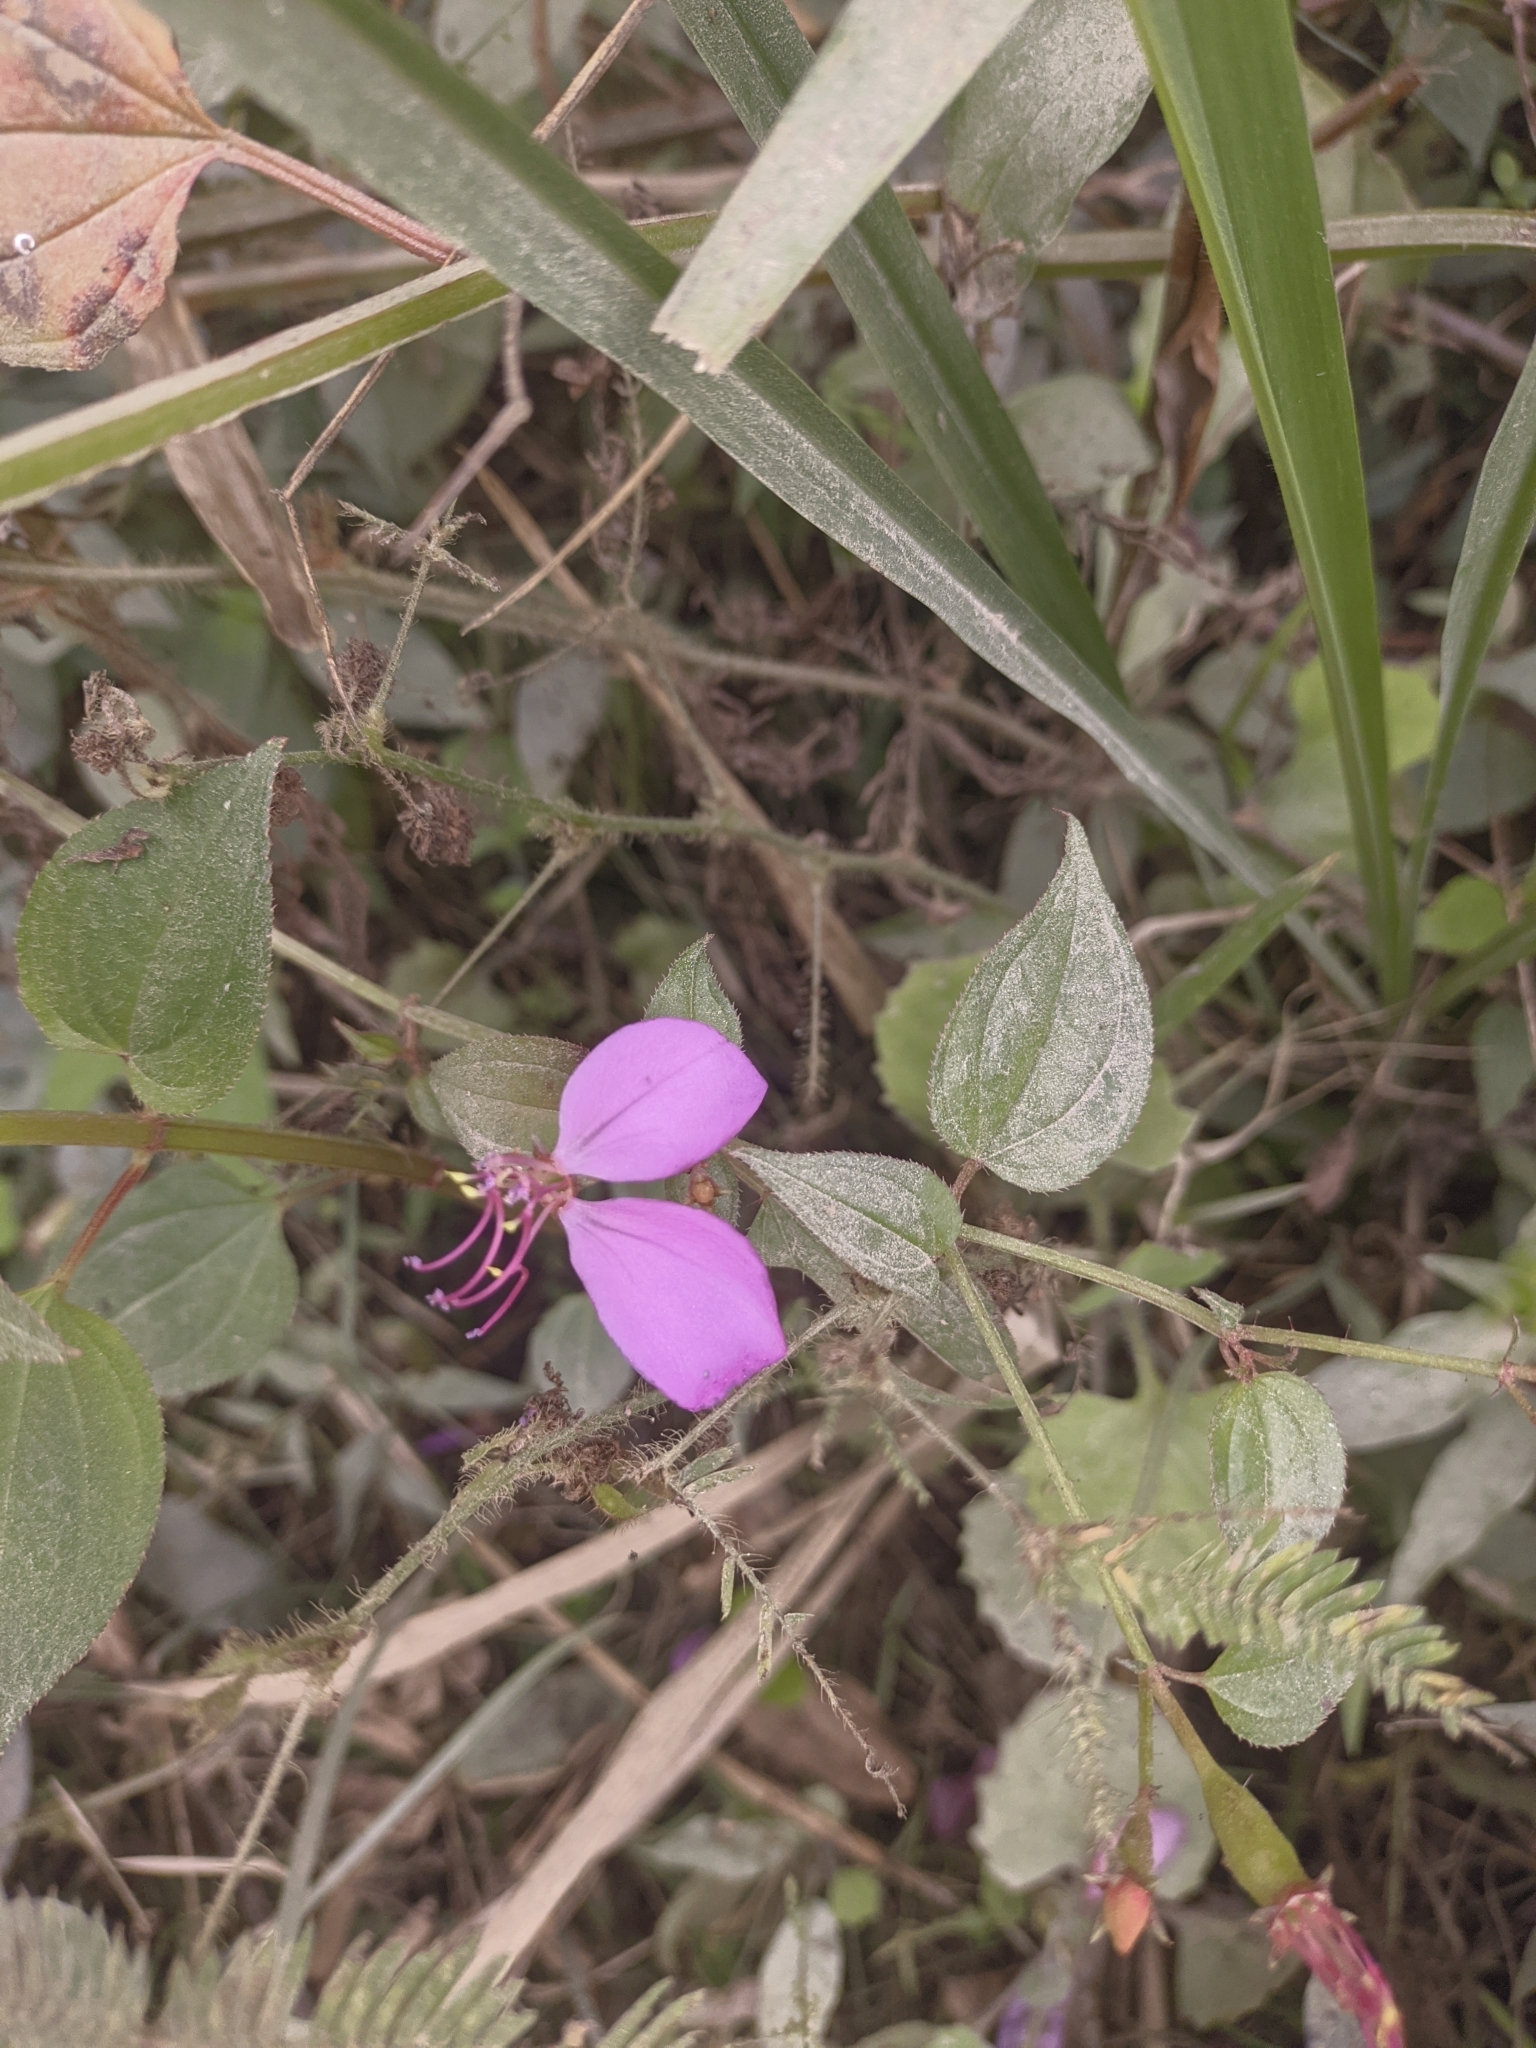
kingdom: Plantae
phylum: Tracheophyta
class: Magnoliopsida
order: Myrtales
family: Melastomataceae
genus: Arthrostemma
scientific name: Arthrostemma ciliatum
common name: Everblooming eavender
